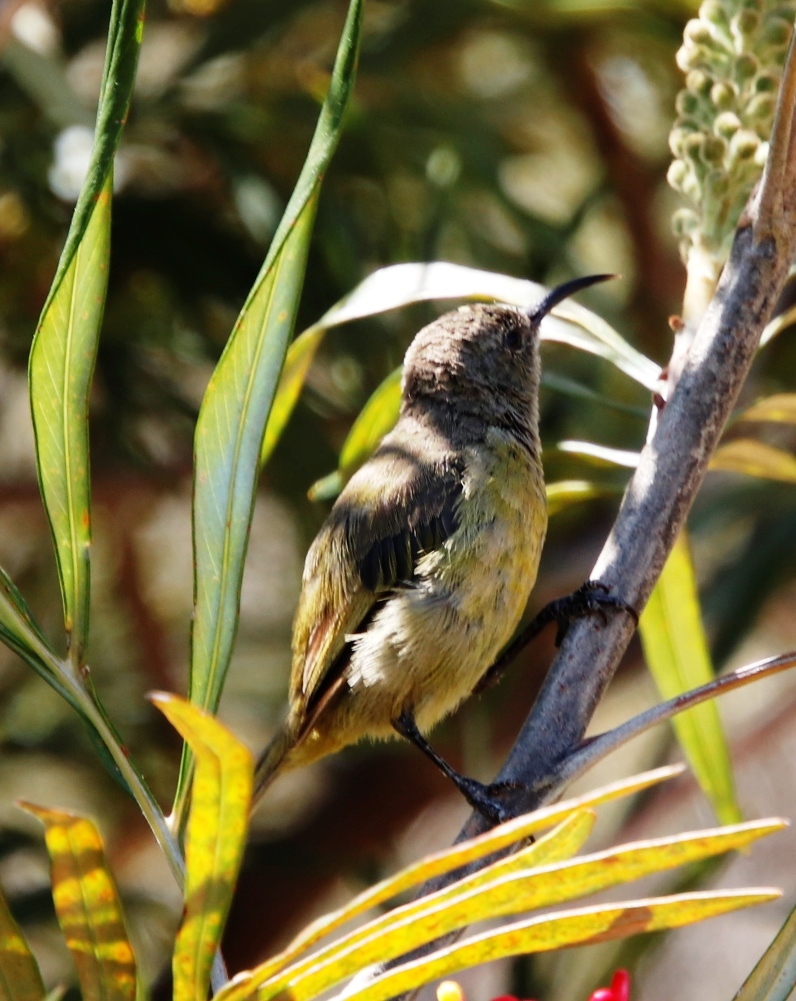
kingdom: Animalia
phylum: Chordata
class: Aves
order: Passeriformes
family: Nectariniidae
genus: Anthobaphes
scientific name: Anthobaphes violacea
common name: Orange-breasted sunbird
